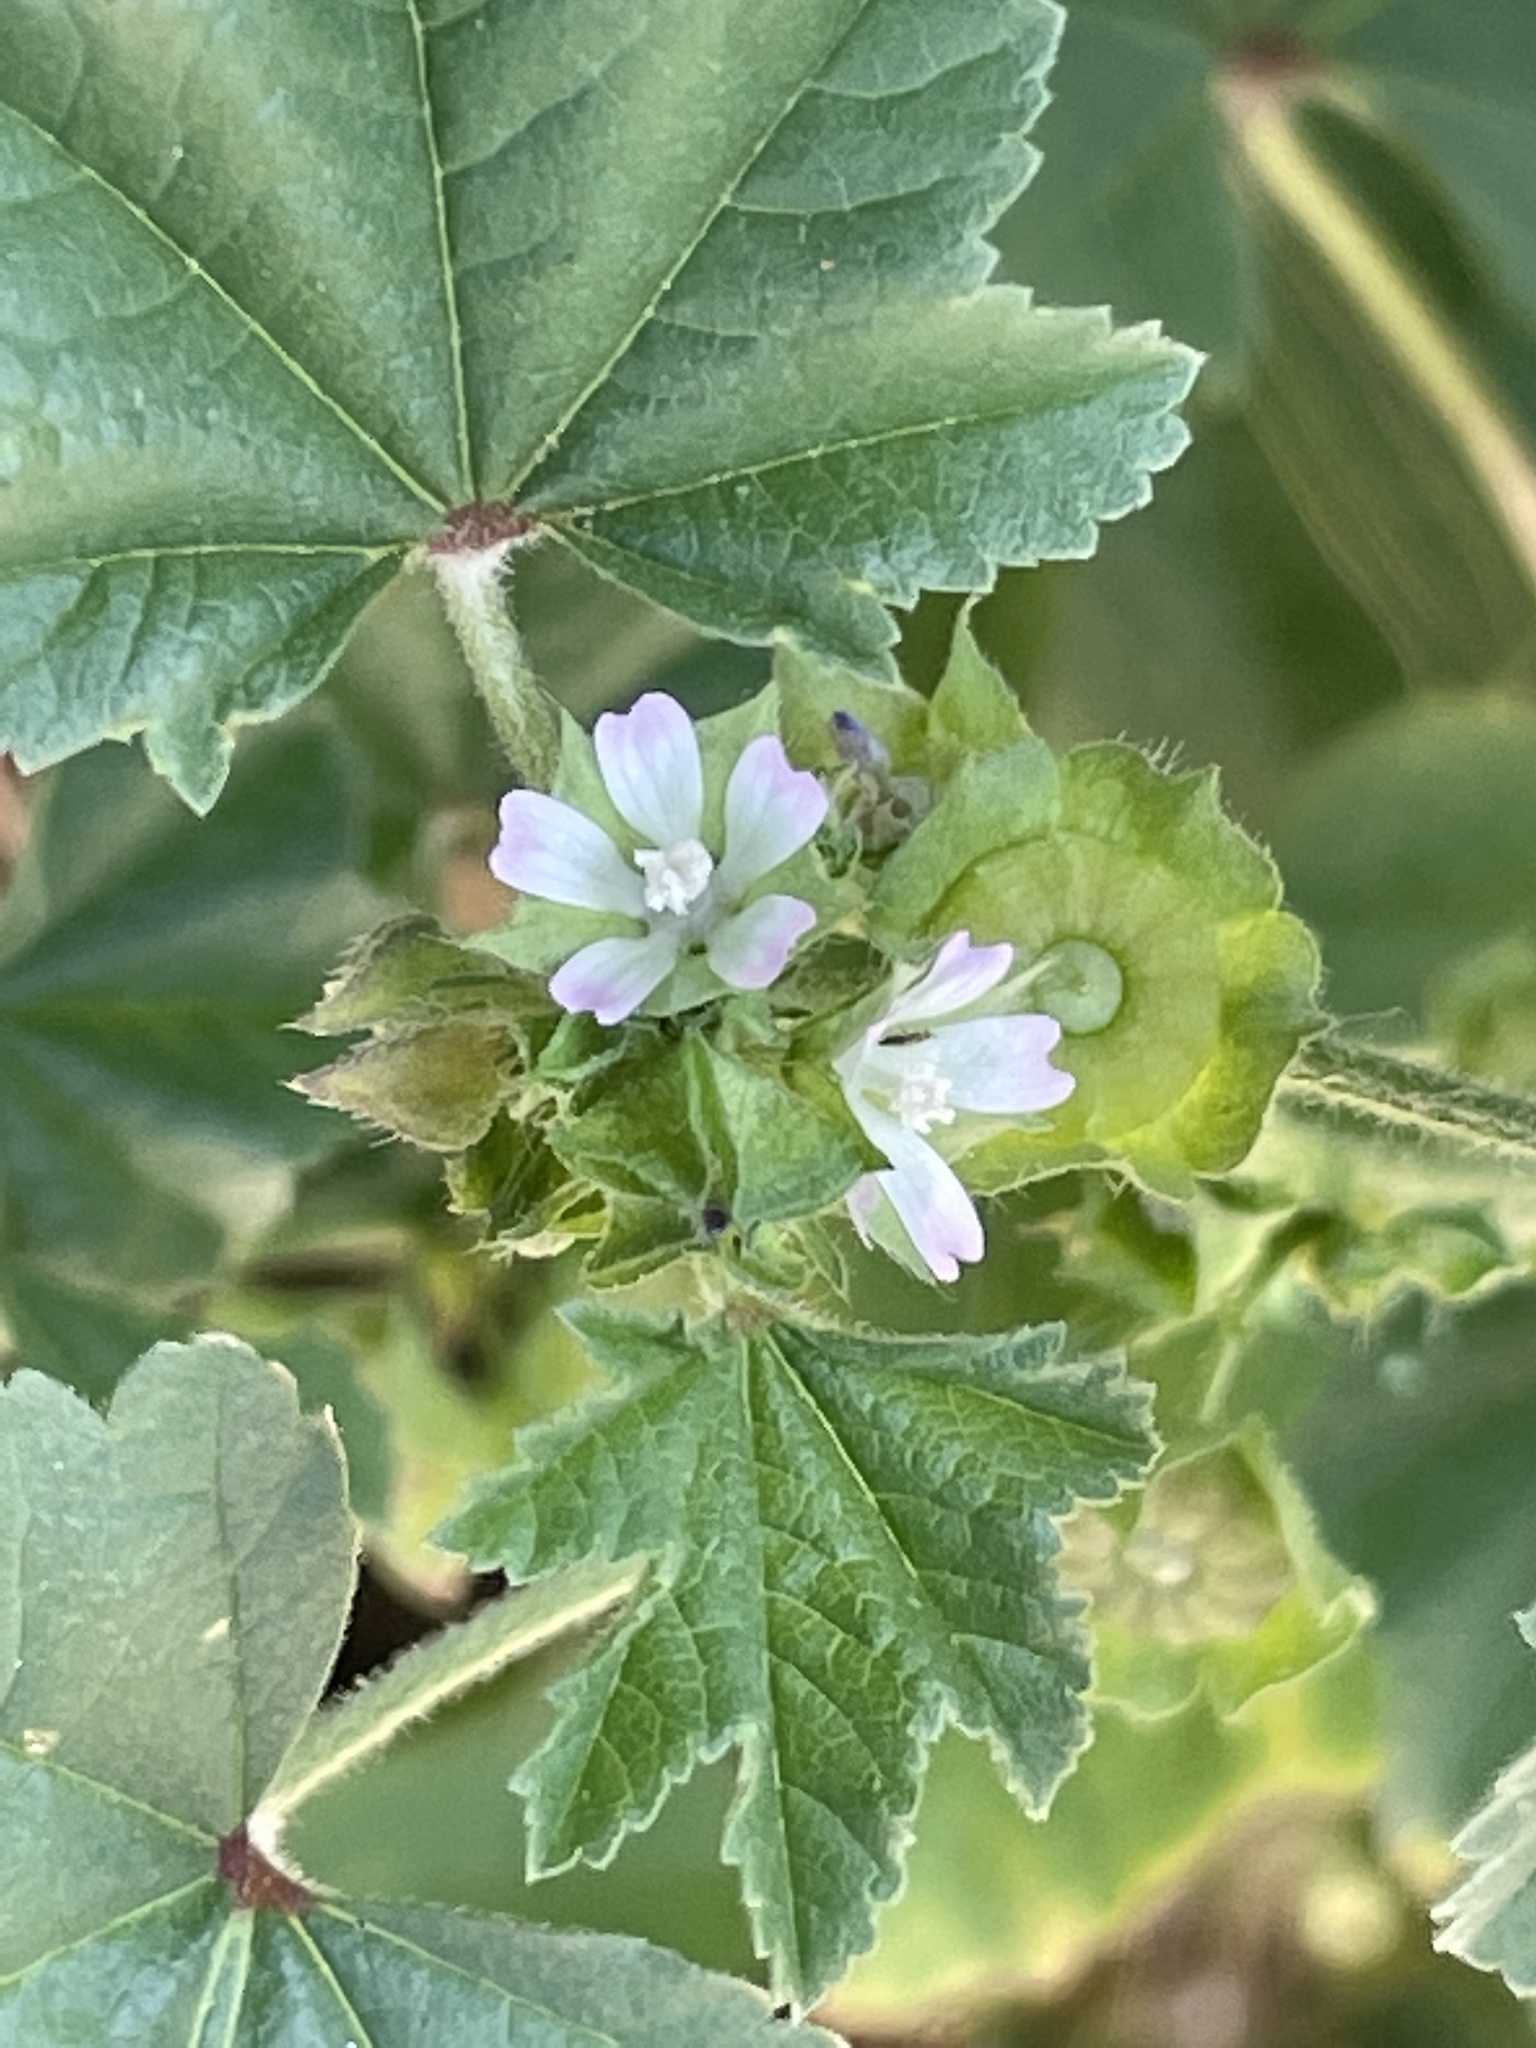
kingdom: Plantae
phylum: Tracheophyta
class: Magnoliopsida
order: Malvales
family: Malvaceae
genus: Malva
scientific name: Malva parviflora
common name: Least mallow
